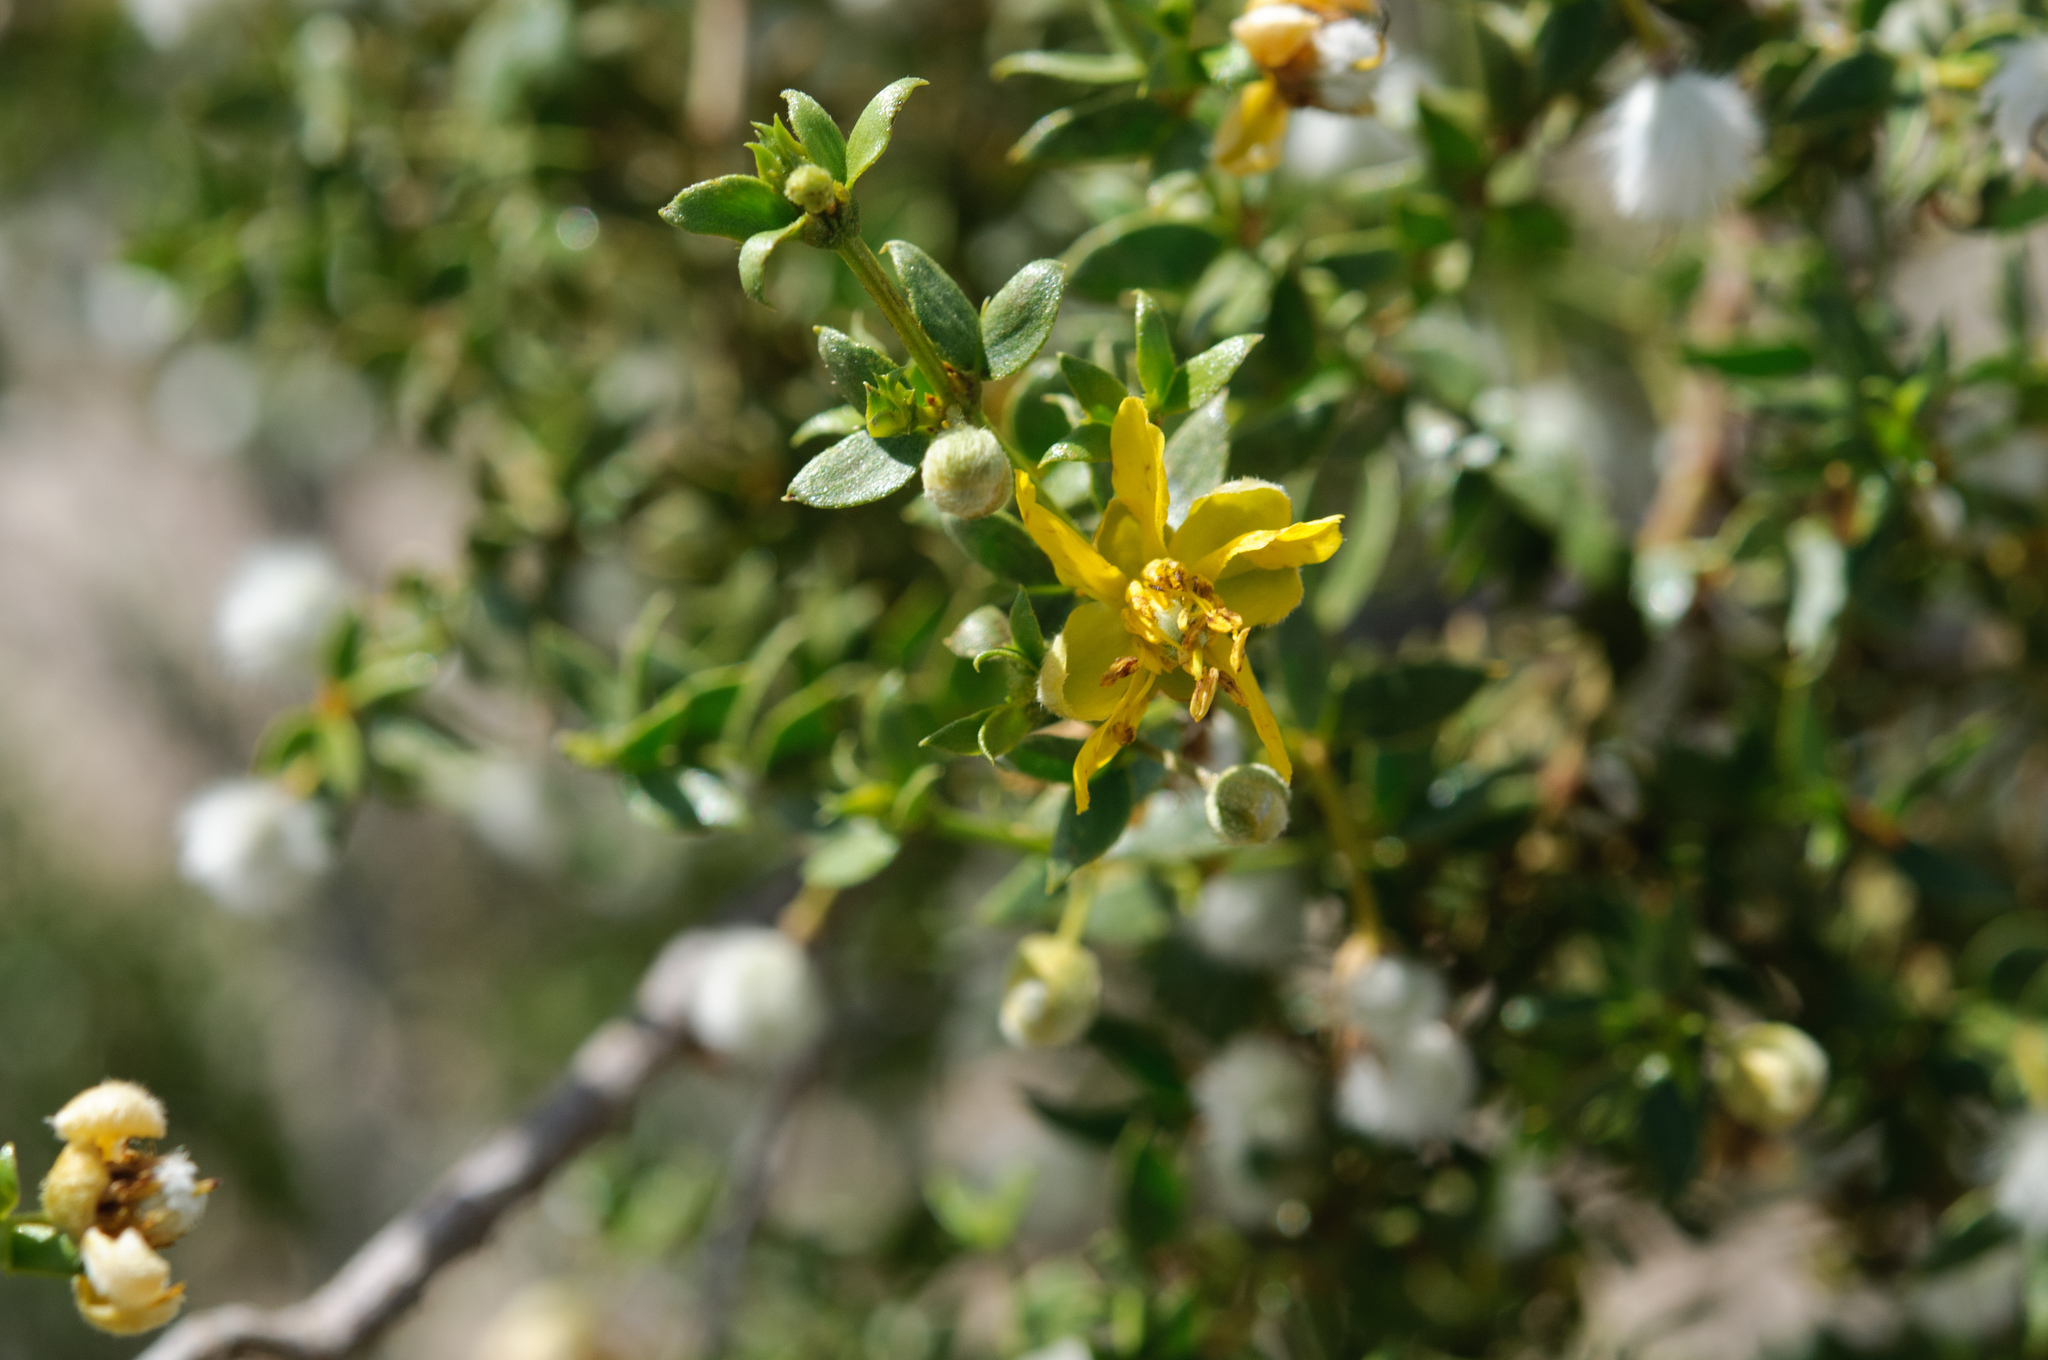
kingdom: Plantae
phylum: Tracheophyta
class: Magnoliopsida
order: Zygophyllales
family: Zygophyllaceae
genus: Larrea
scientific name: Larrea tridentata
